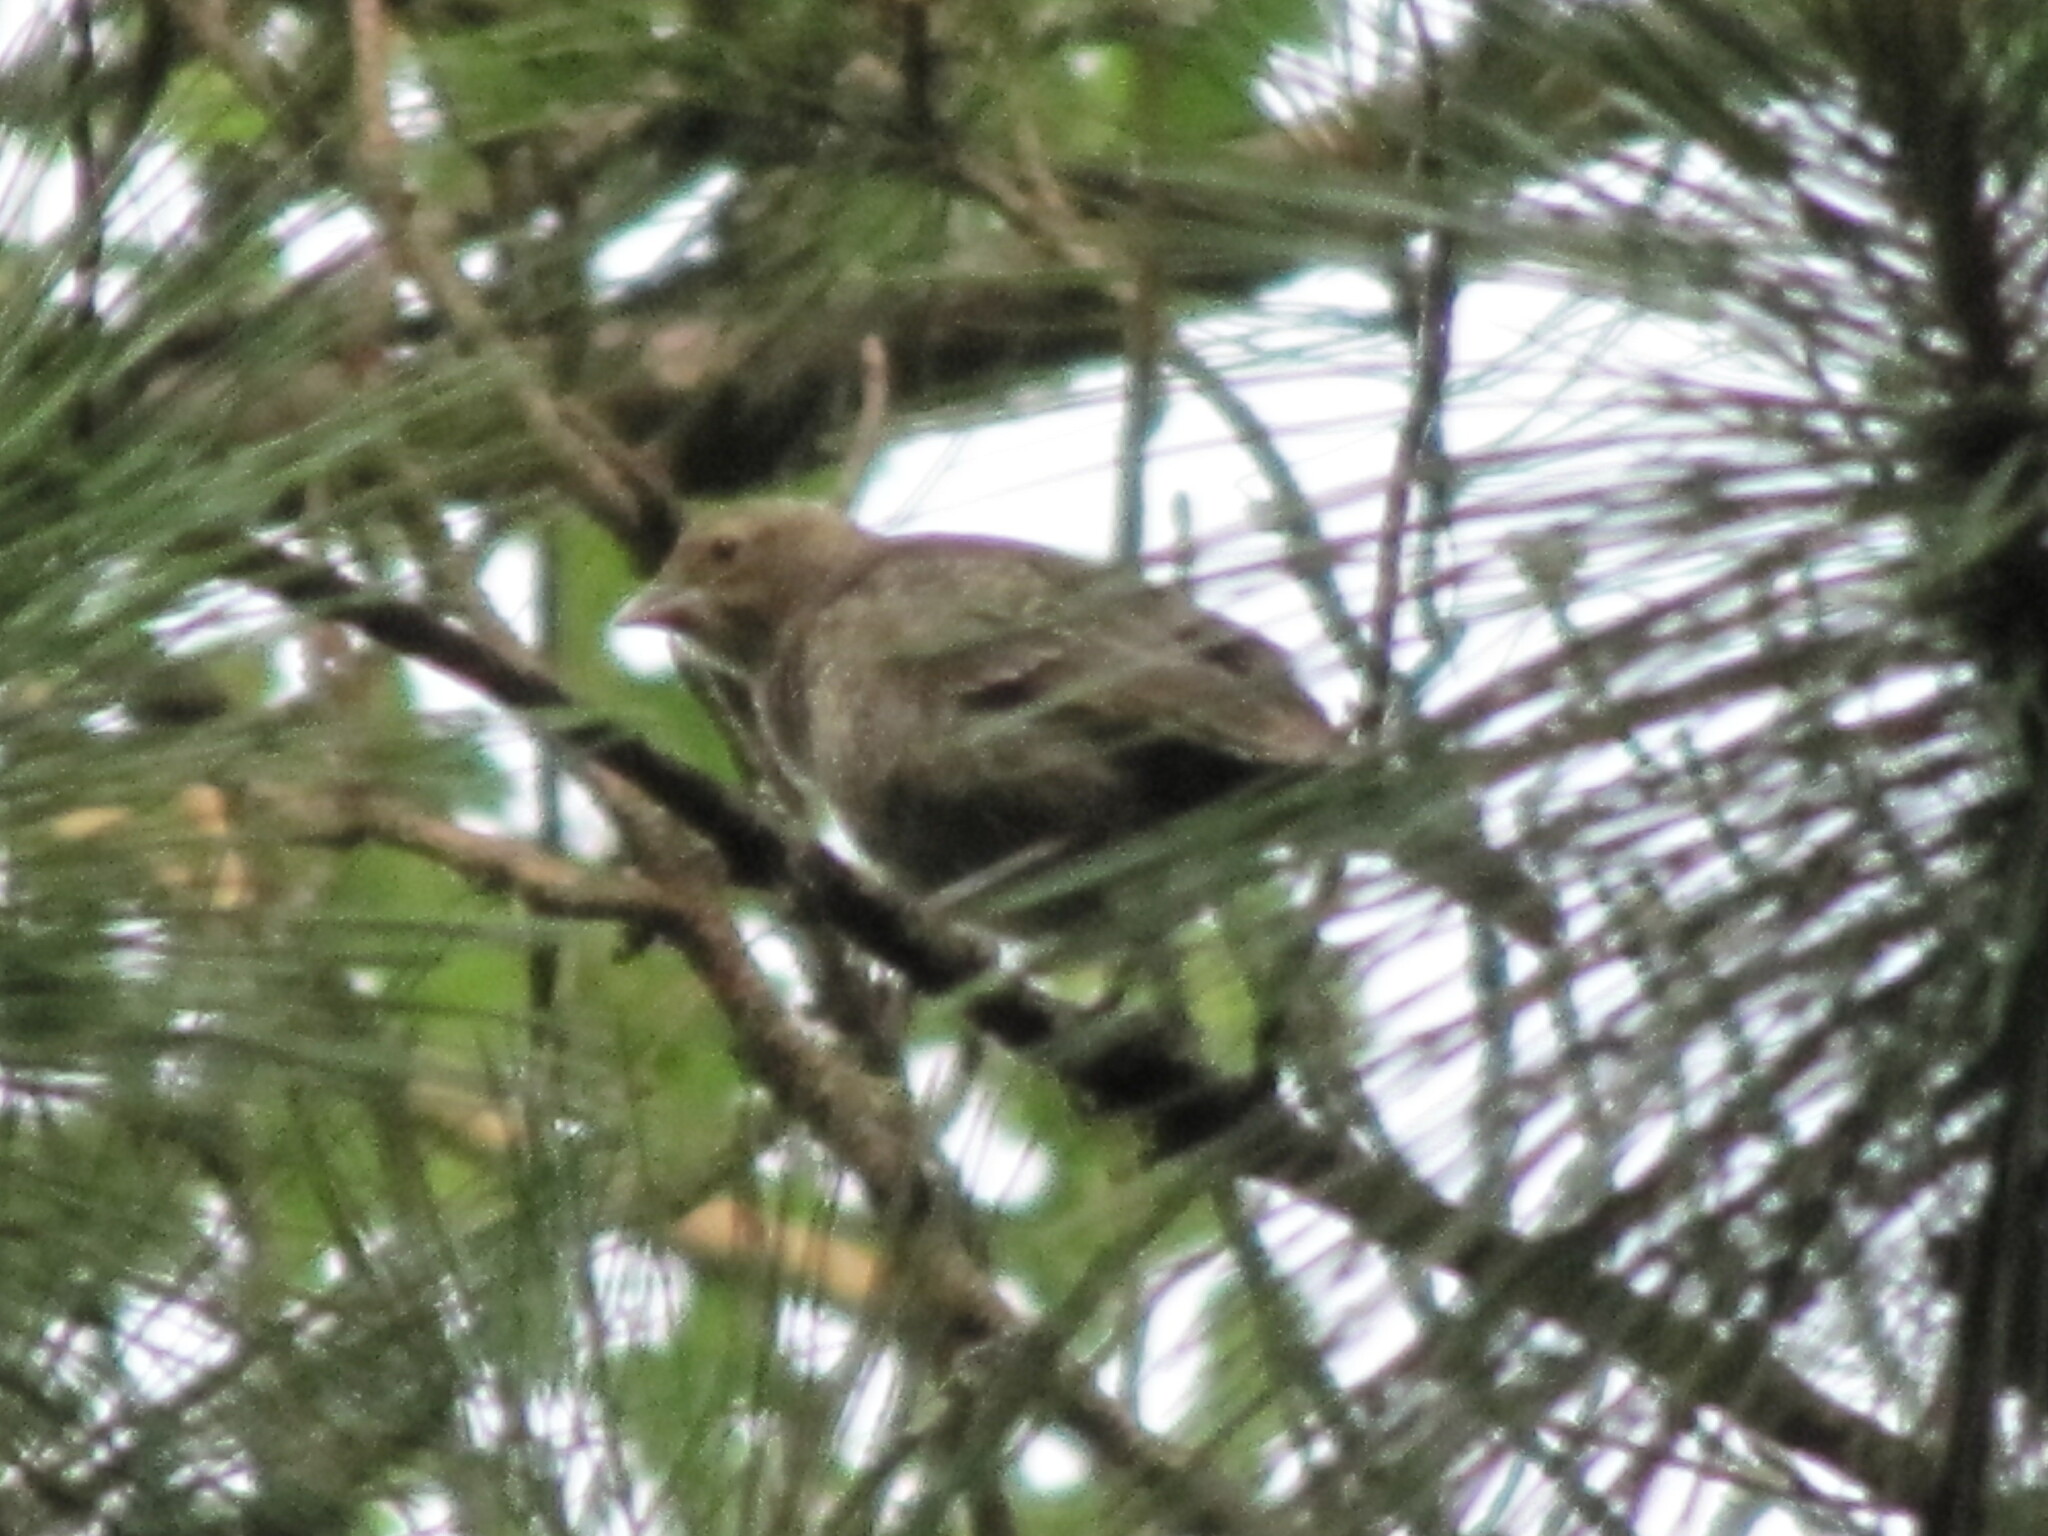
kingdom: Animalia
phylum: Chordata
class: Aves
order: Passeriformes
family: Icteridae
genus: Molothrus
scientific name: Molothrus ater
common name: Brown-headed cowbird
